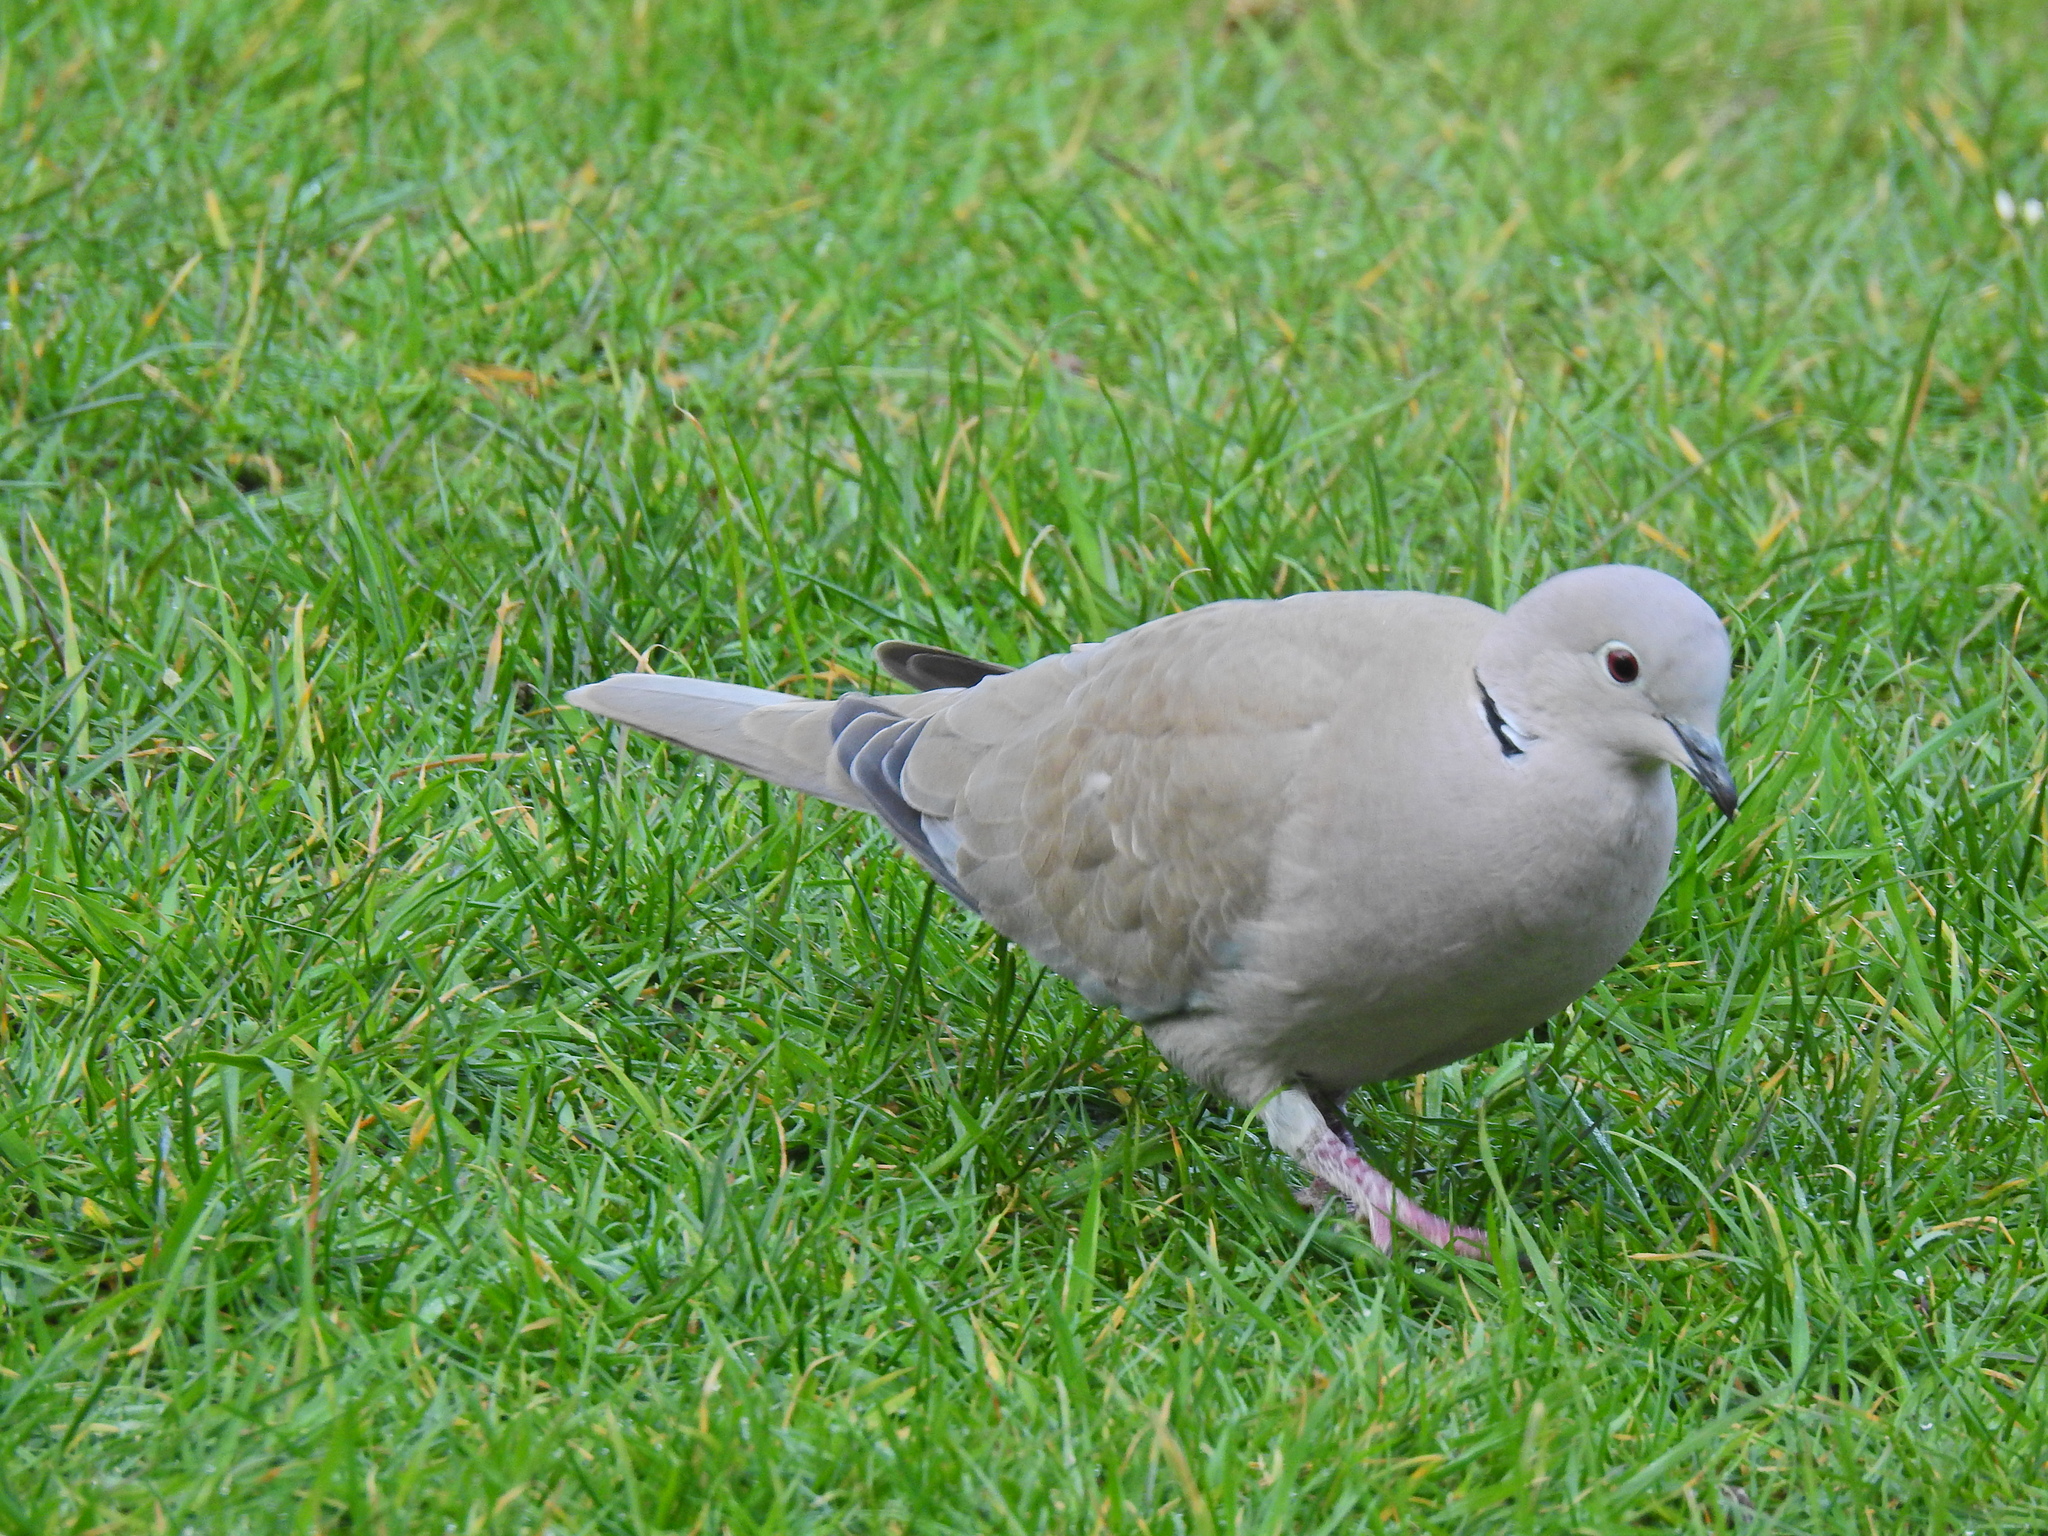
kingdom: Animalia
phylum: Chordata
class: Aves
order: Columbiformes
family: Columbidae
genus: Streptopelia
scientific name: Streptopelia decaocto
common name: Eurasian collared dove
